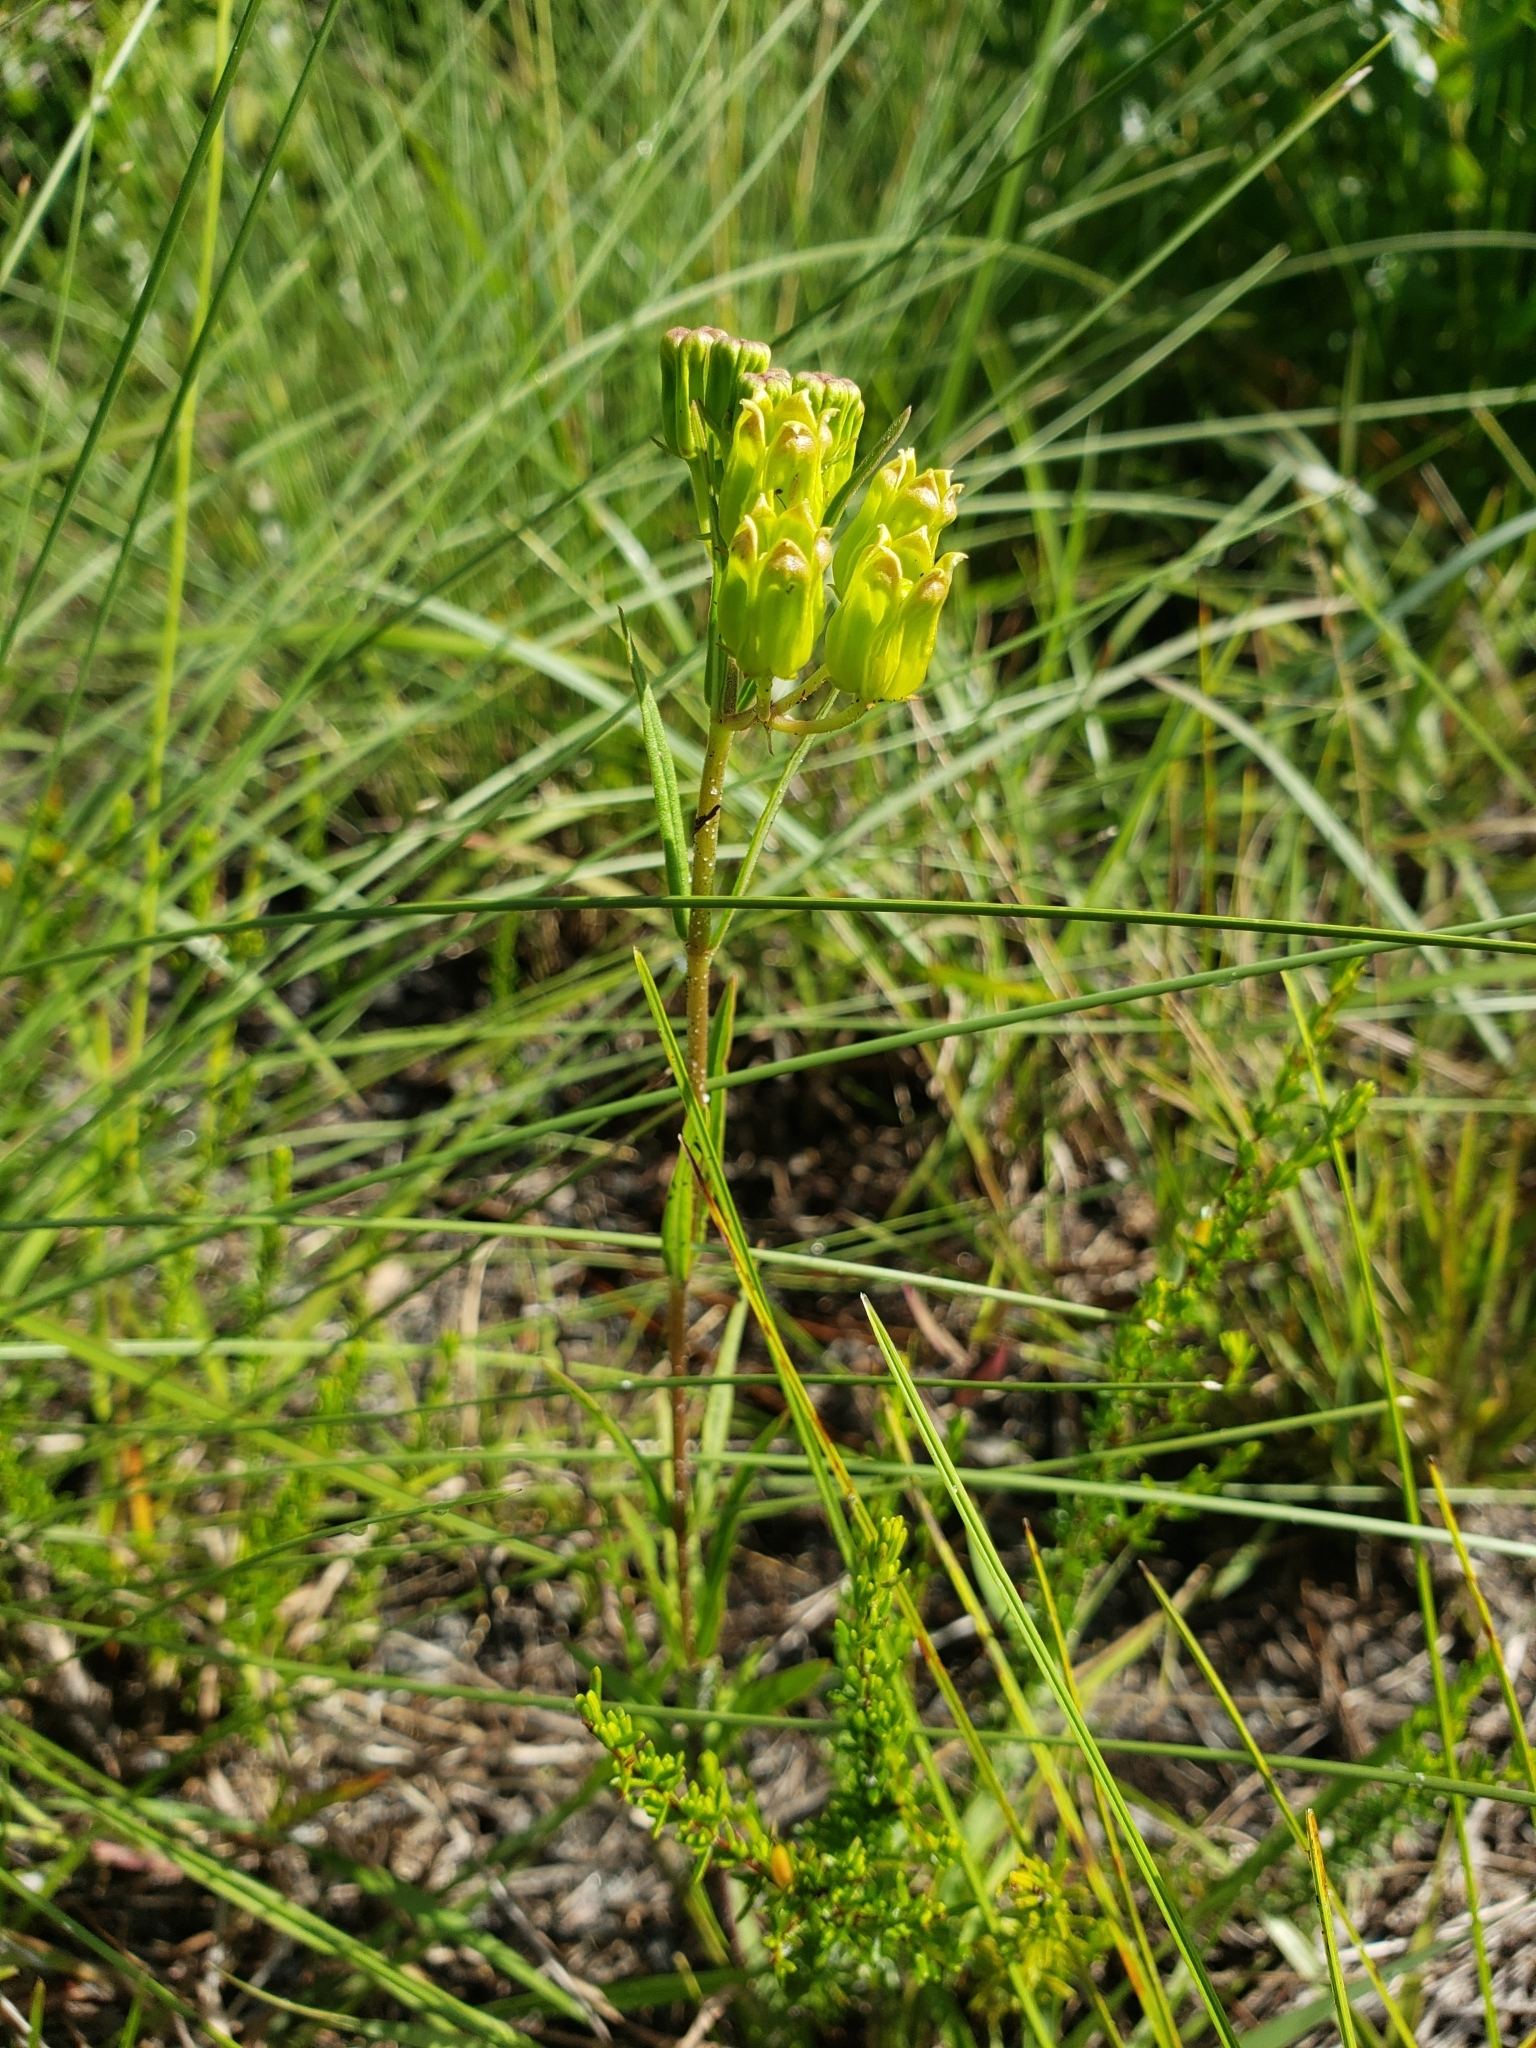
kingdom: Plantae
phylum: Tracheophyta
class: Magnoliopsida
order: Gentianales
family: Apocynaceae
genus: Asclepias
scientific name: Asclepias pedicellata
